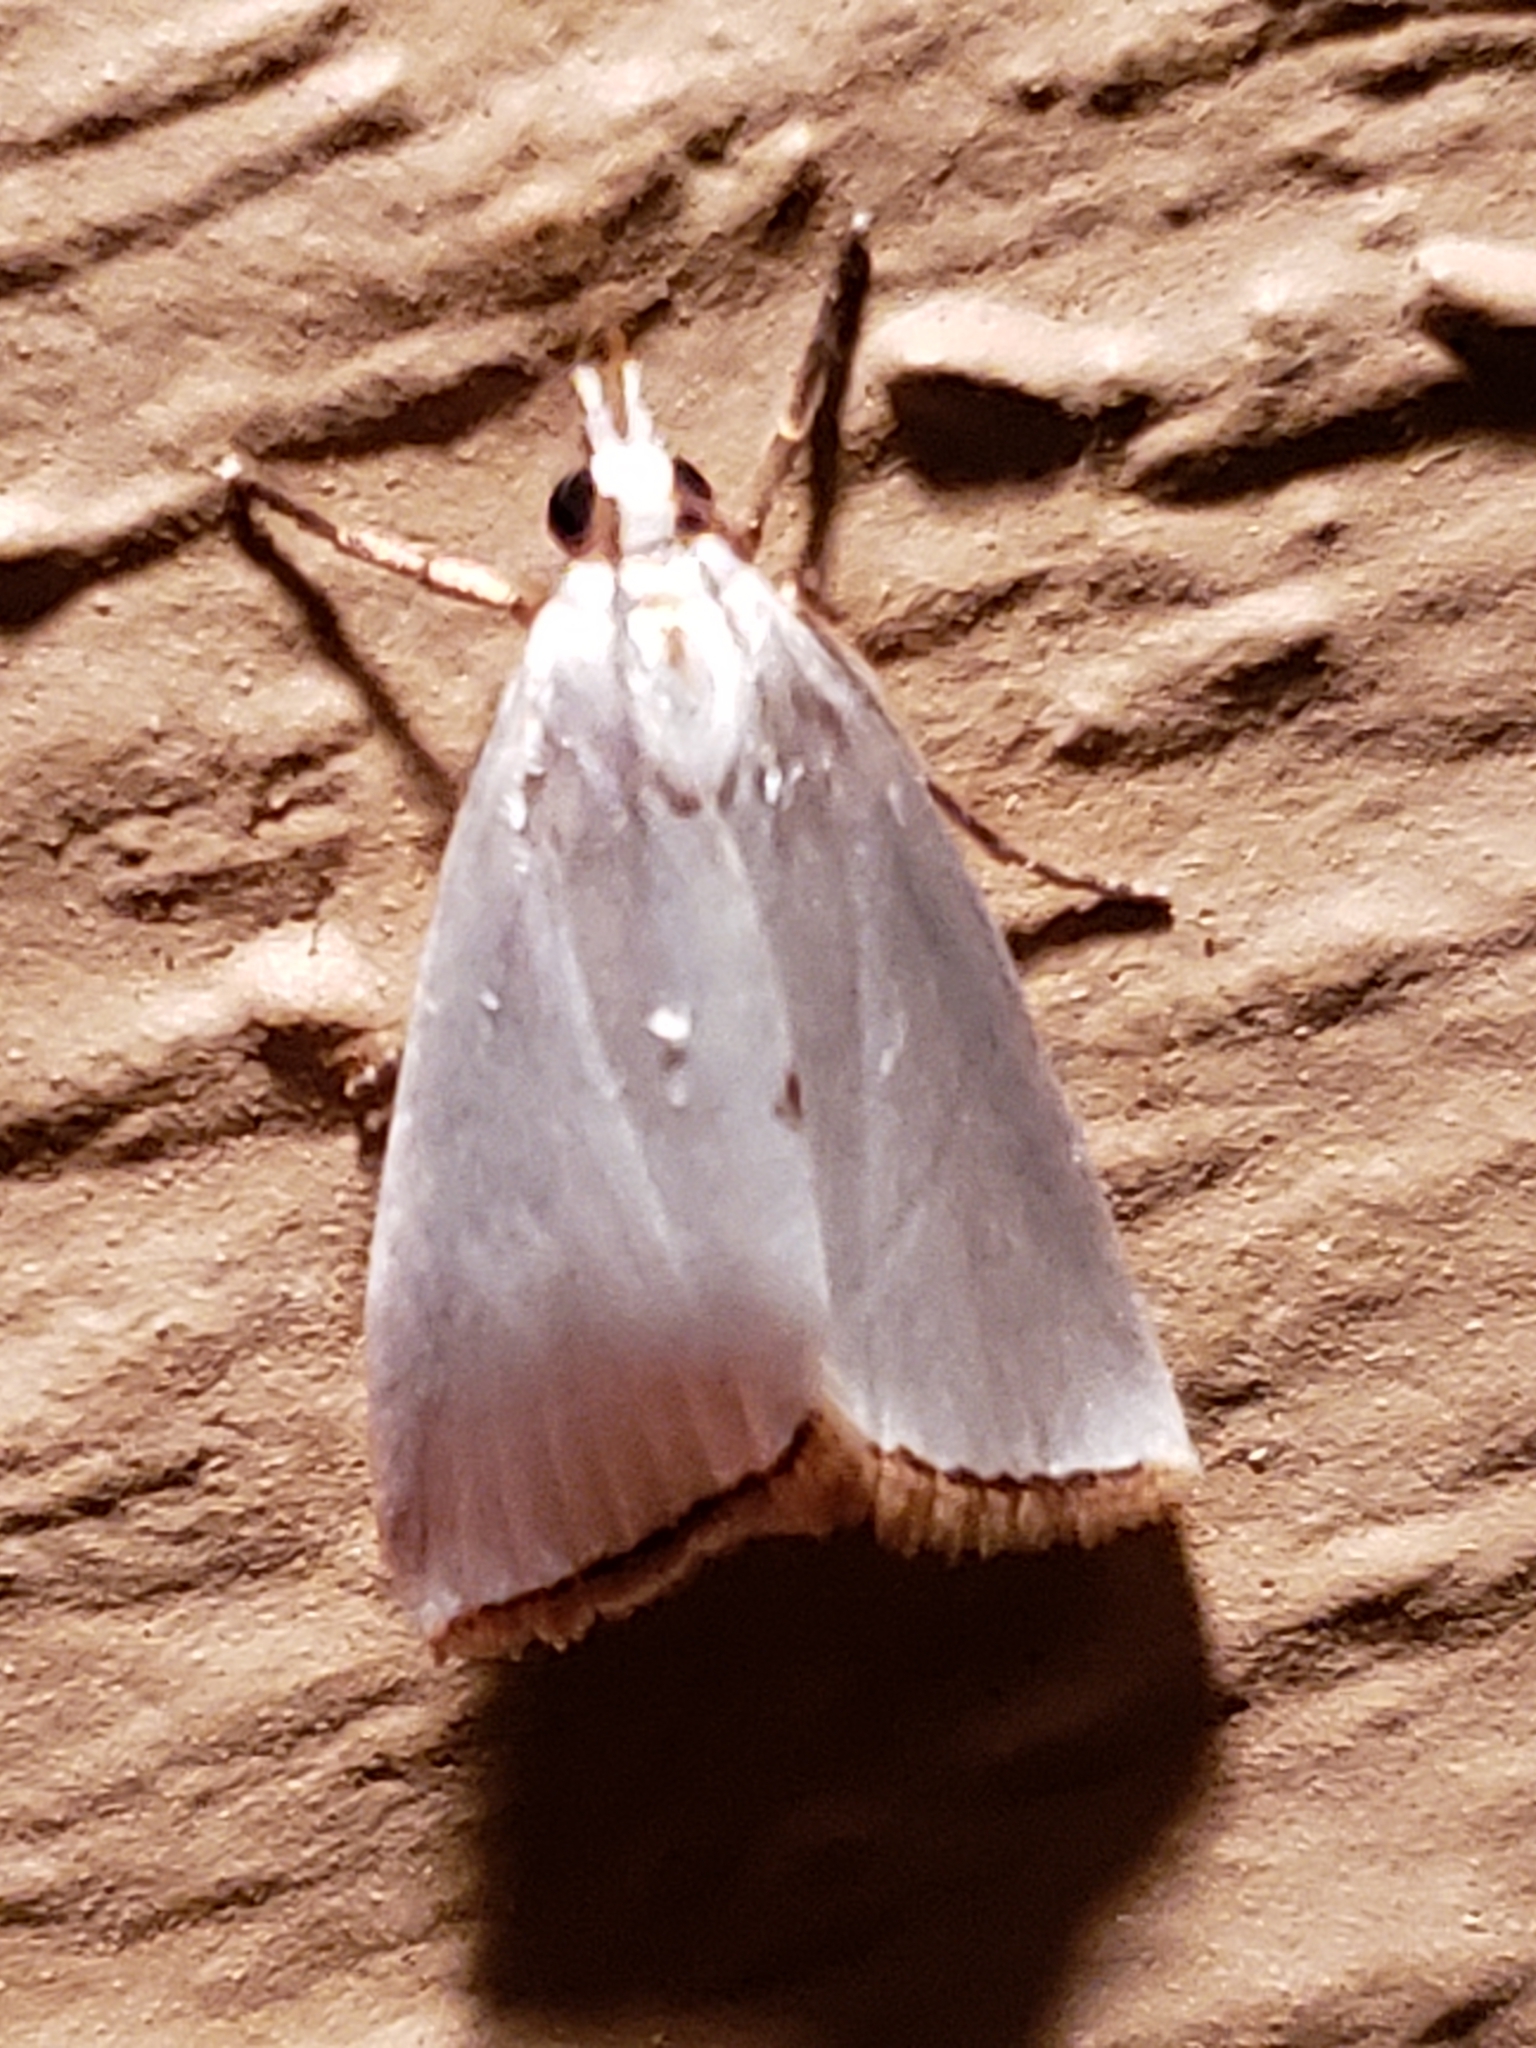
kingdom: Animalia
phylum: Arthropoda
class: Insecta
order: Lepidoptera
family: Crambidae
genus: Argyria
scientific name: Argyria nivalis
